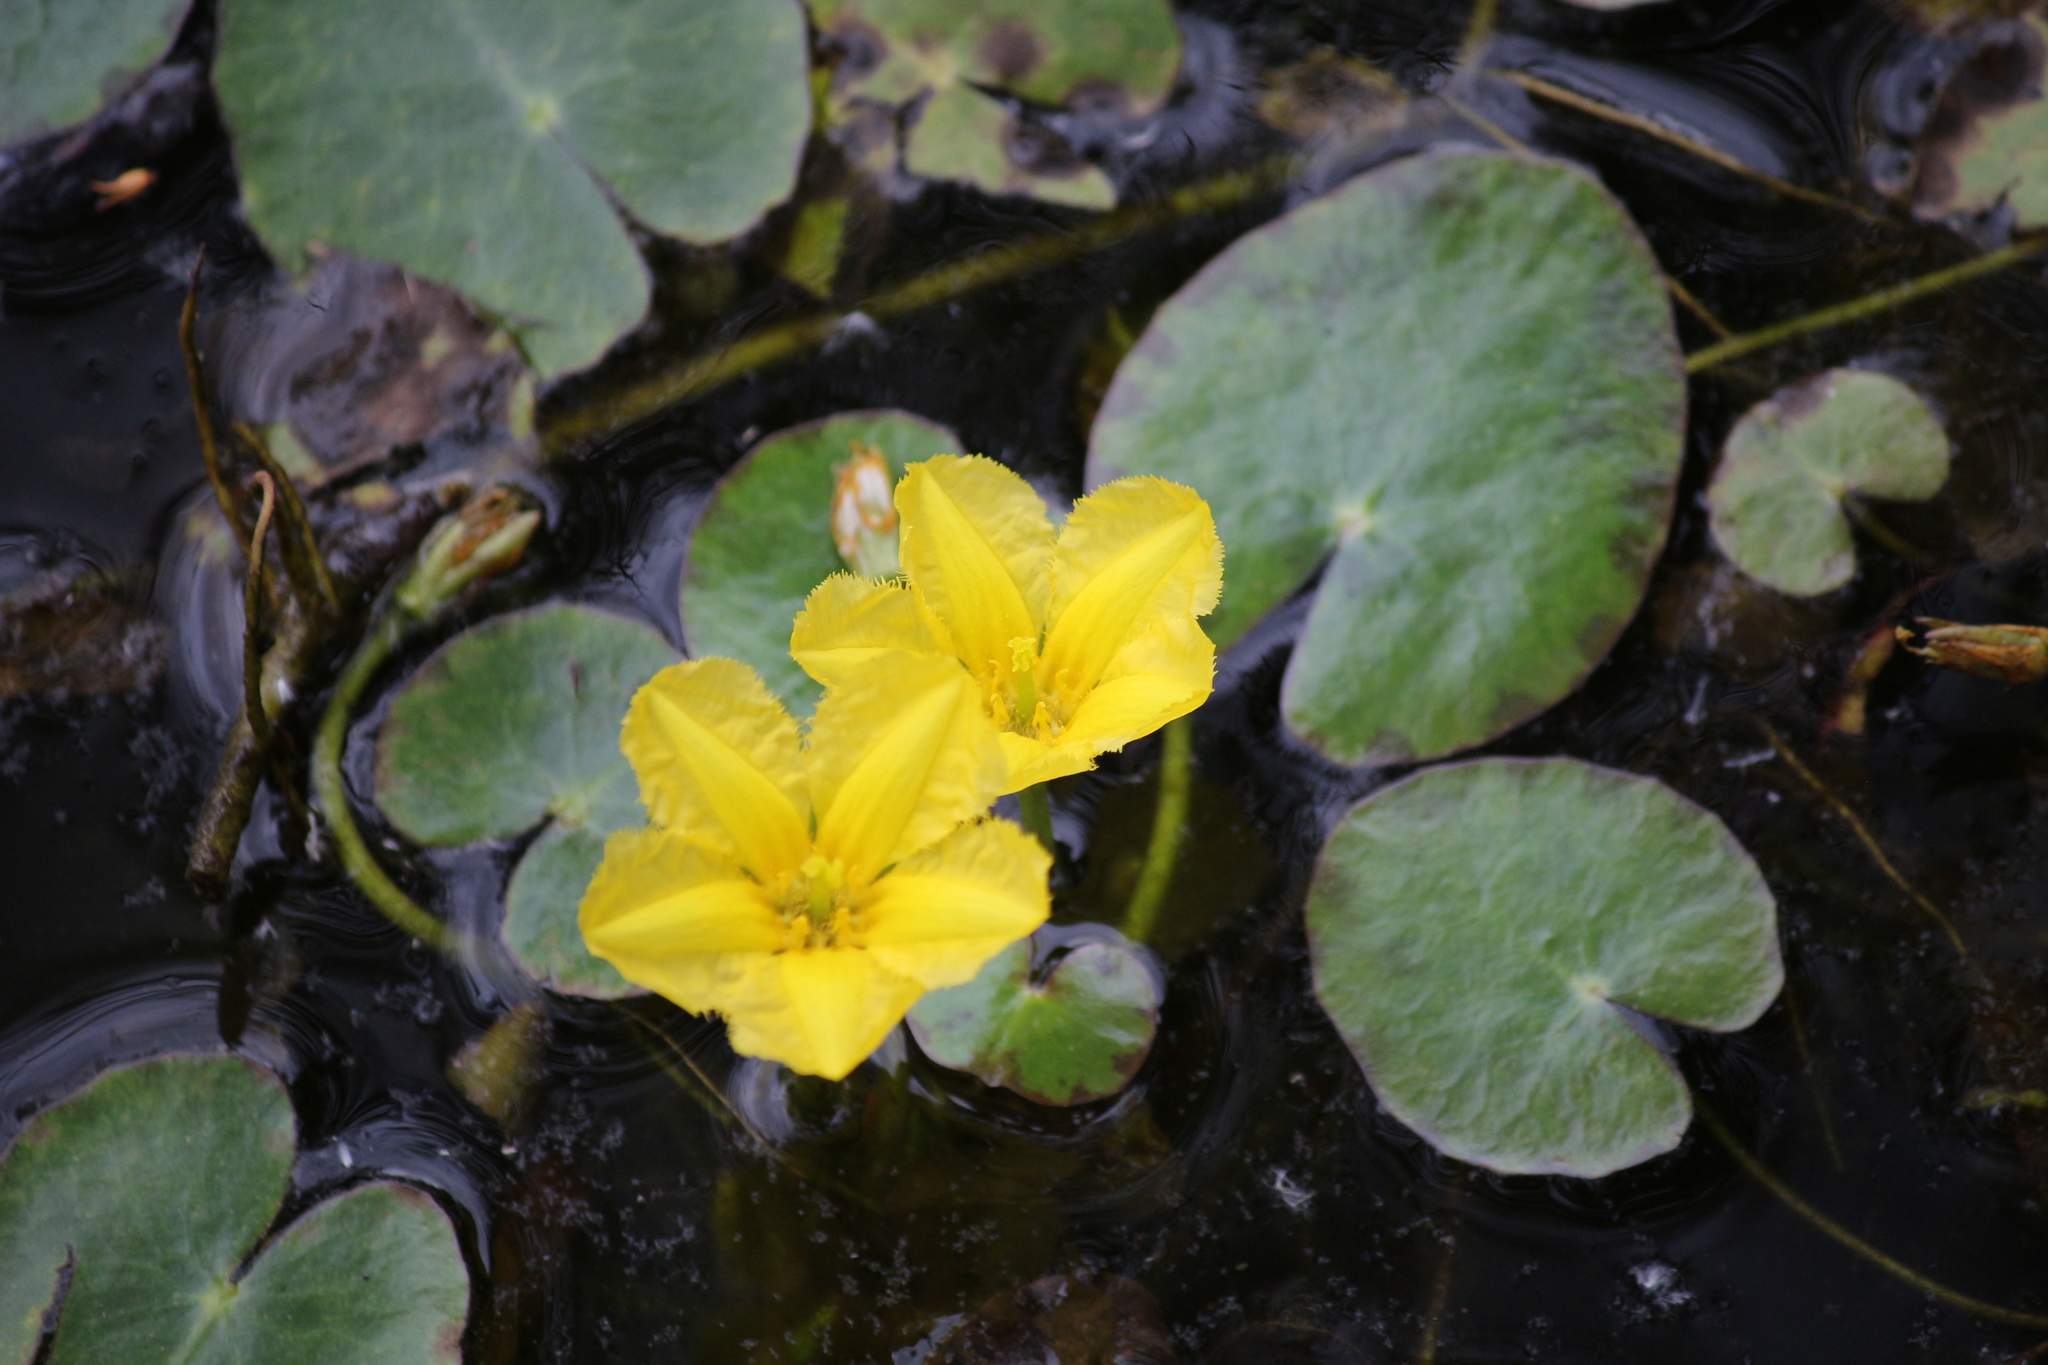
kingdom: Plantae
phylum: Tracheophyta
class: Magnoliopsida
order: Asterales
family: Menyanthaceae
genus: Nymphoides
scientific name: Nymphoides peltata
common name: Fringed water-lily
